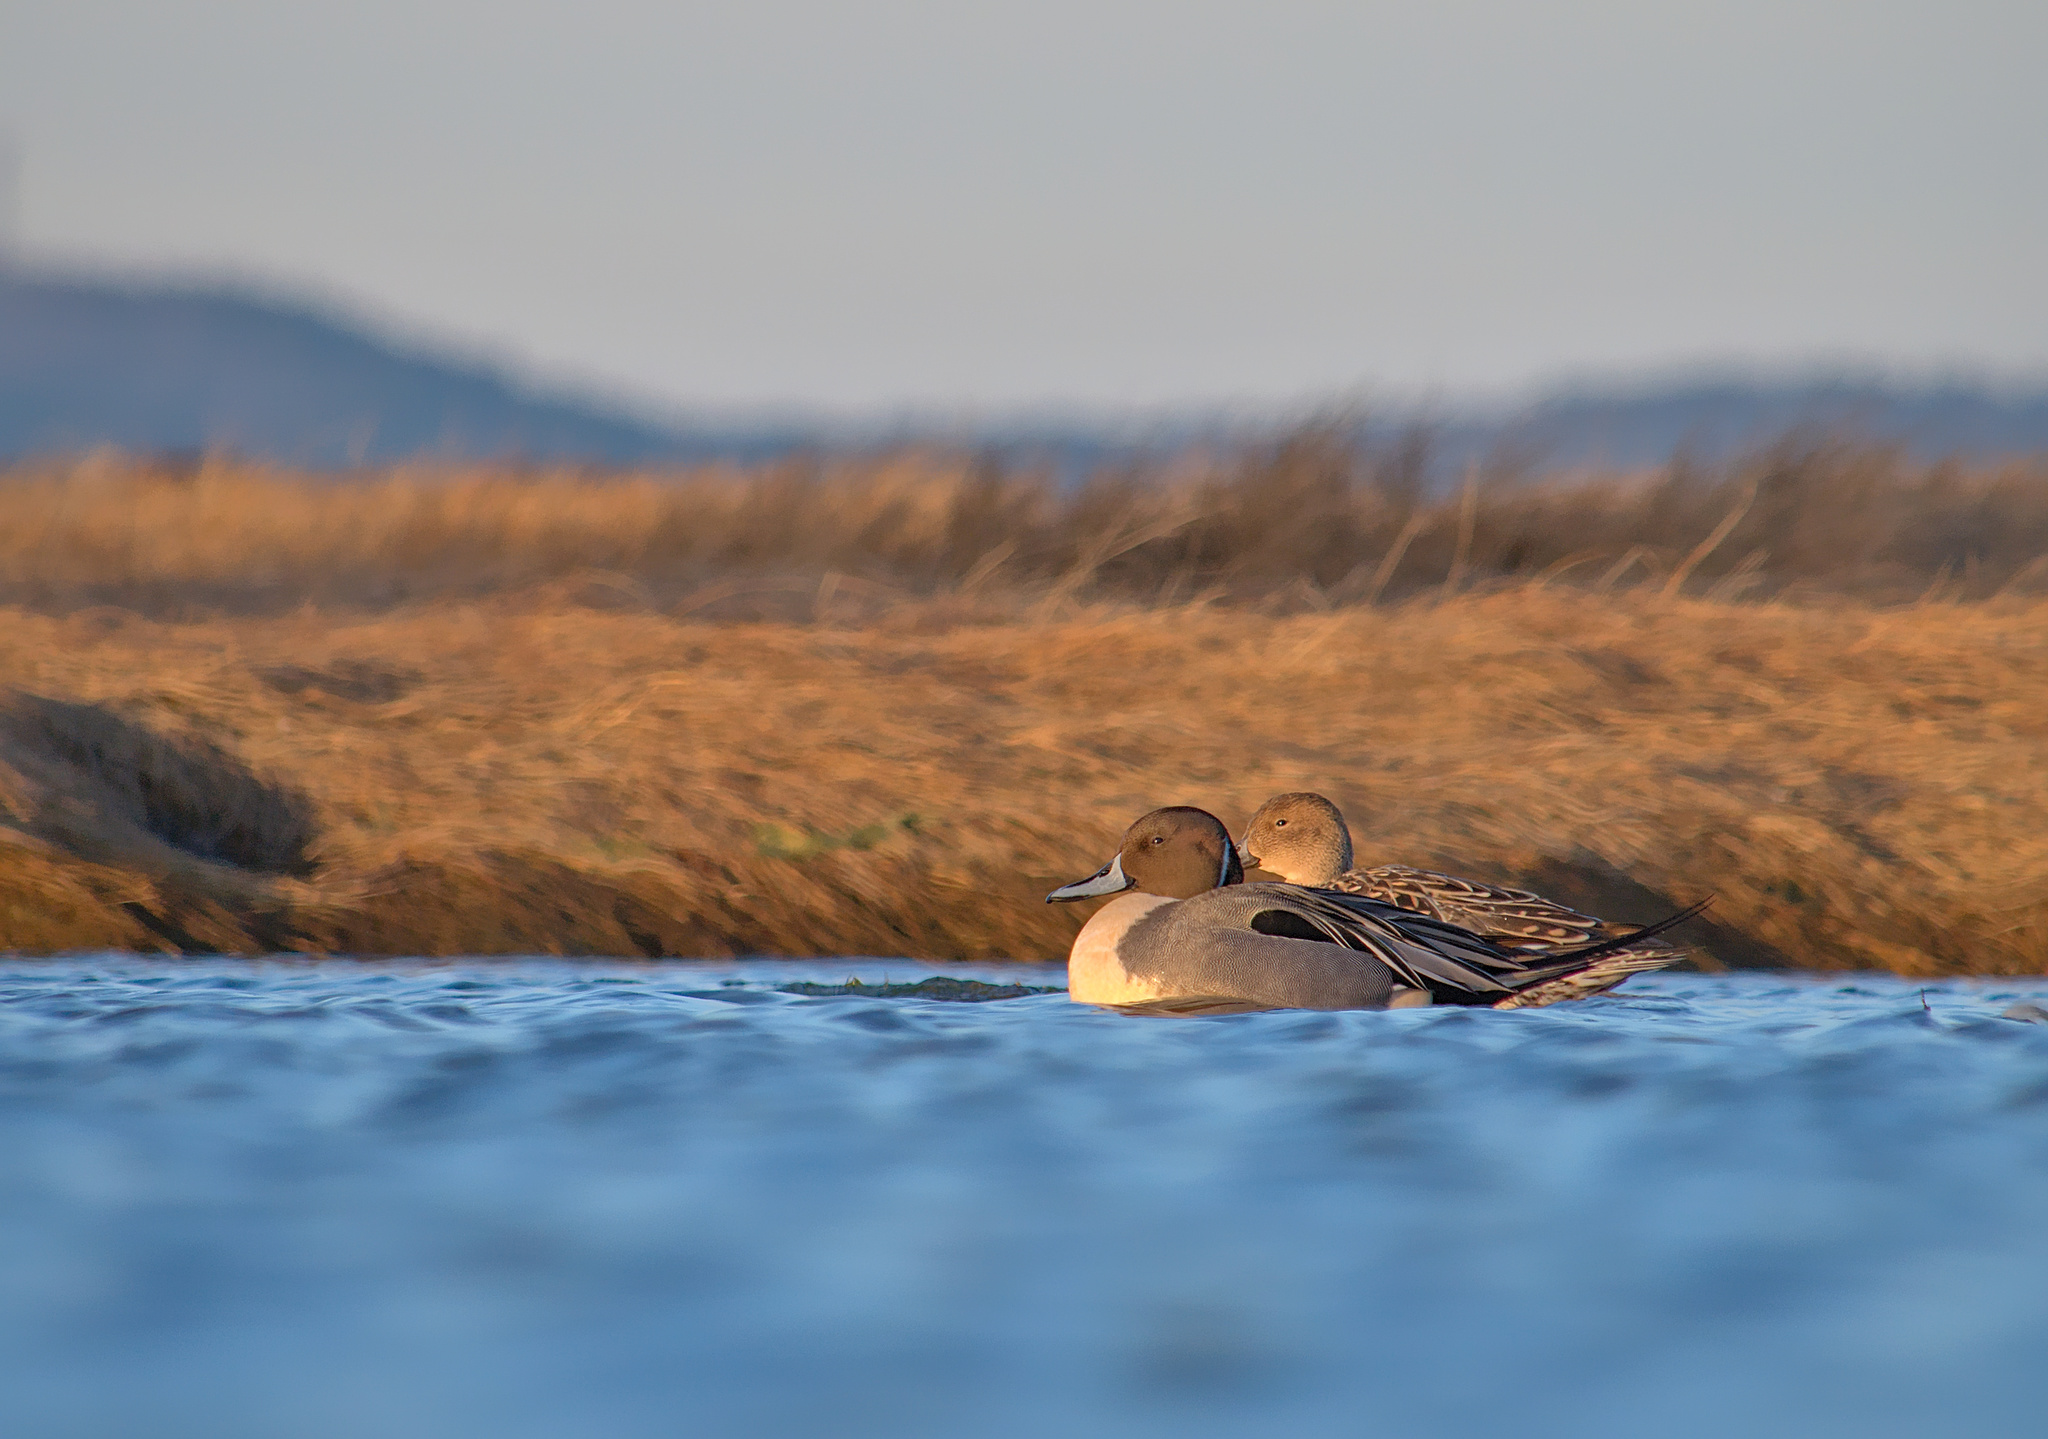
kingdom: Animalia
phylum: Chordata
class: Aves
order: Anseriformes
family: Anatidae
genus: Anas
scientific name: Anas acuta
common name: Northern pintail
